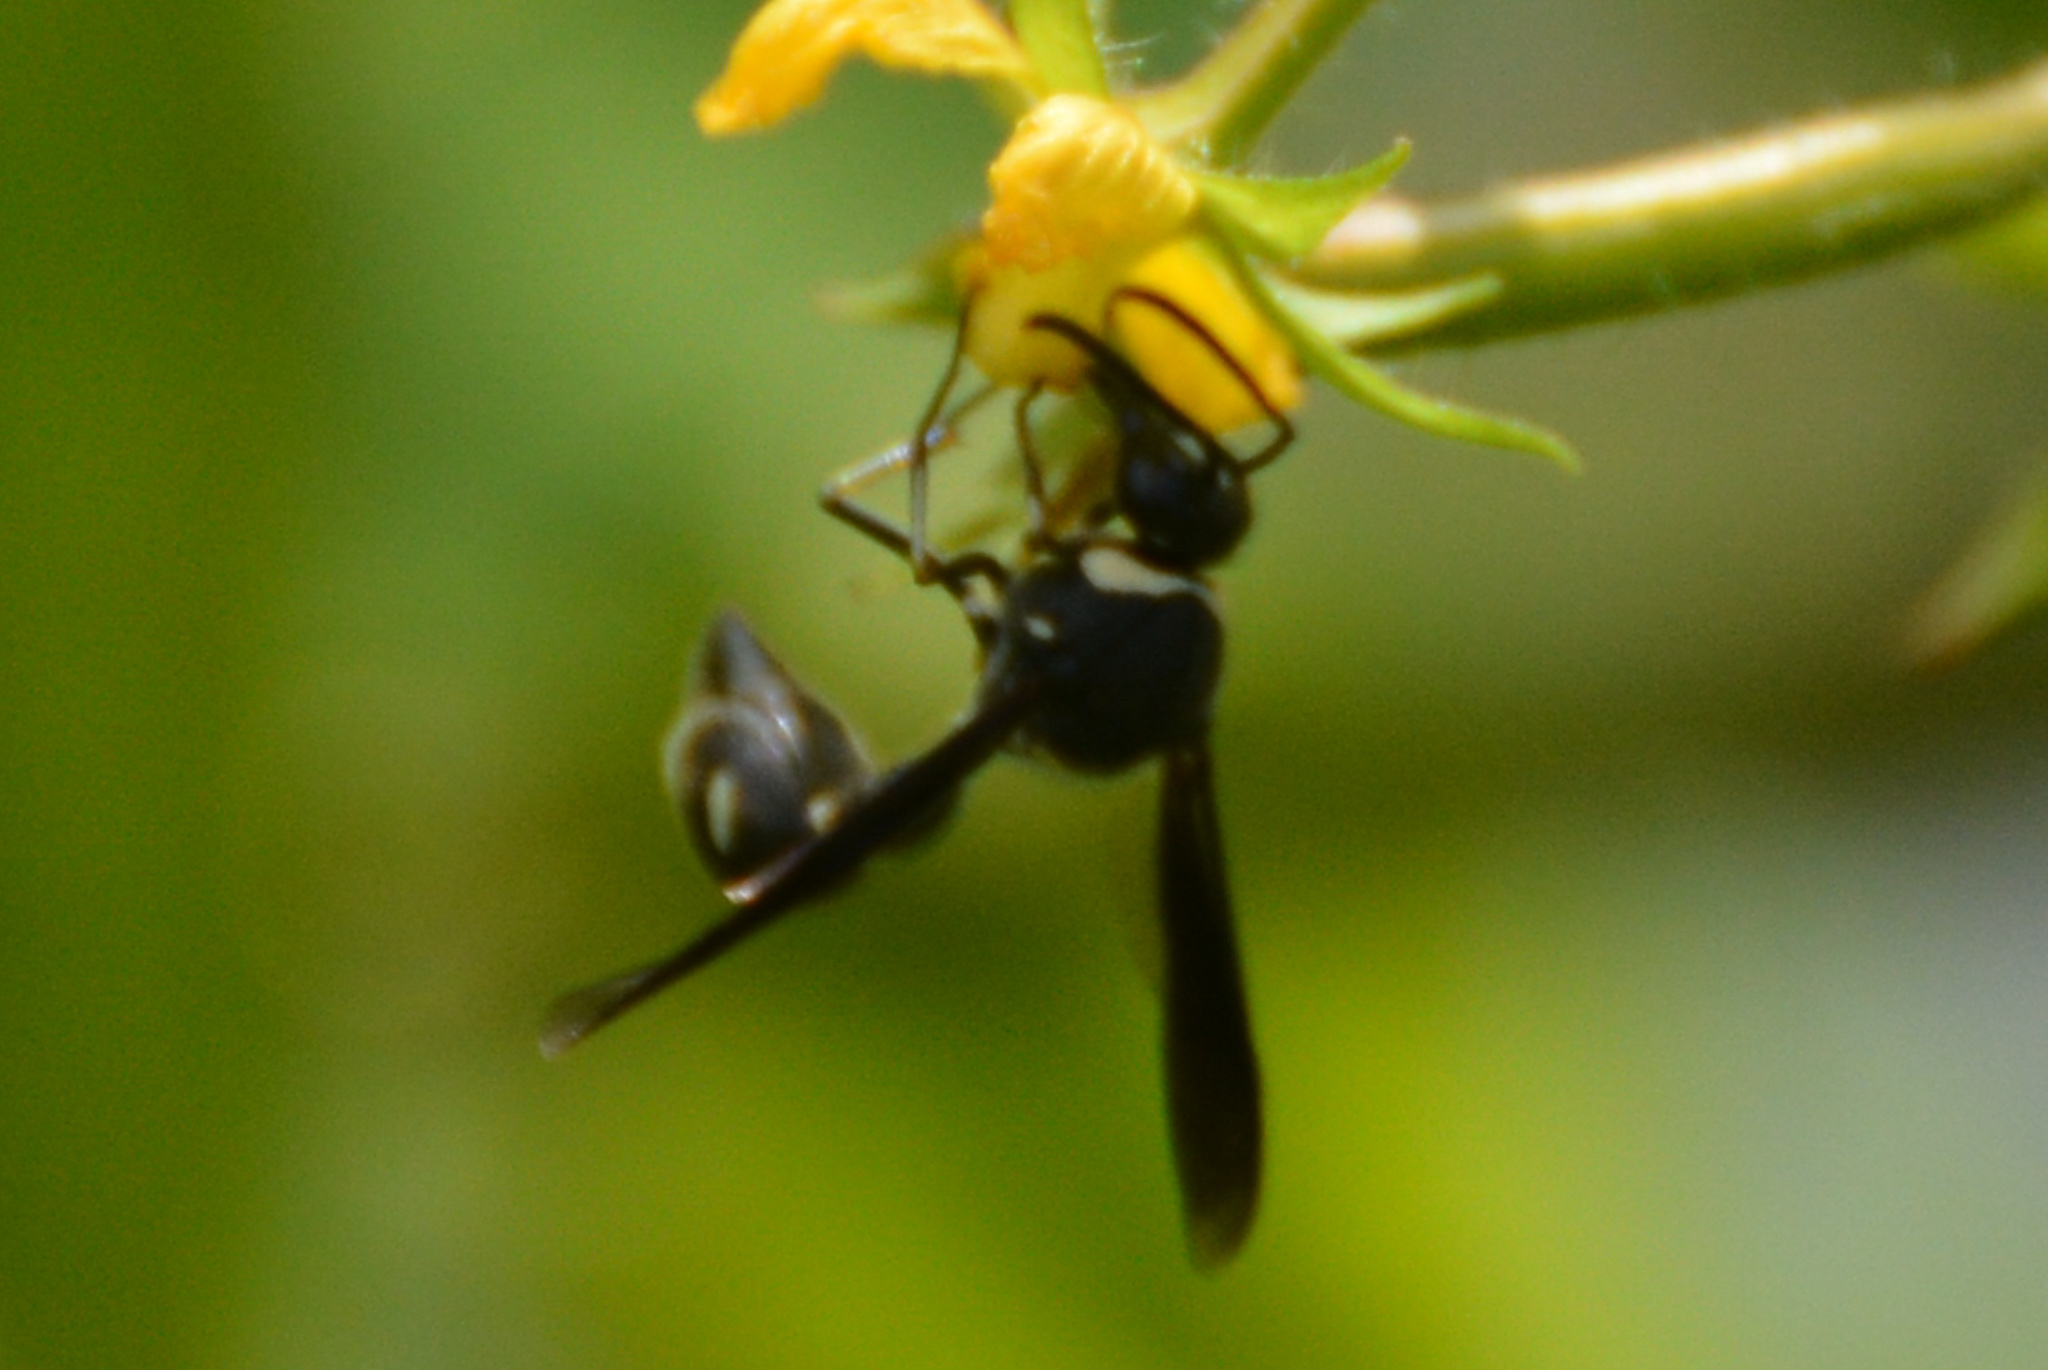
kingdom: Animalia
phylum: Arthropoda
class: Insecta
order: Hymenoptera
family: Vespidae
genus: Eumenes
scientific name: Eumenes fraternus
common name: Fraternal potter wasp
